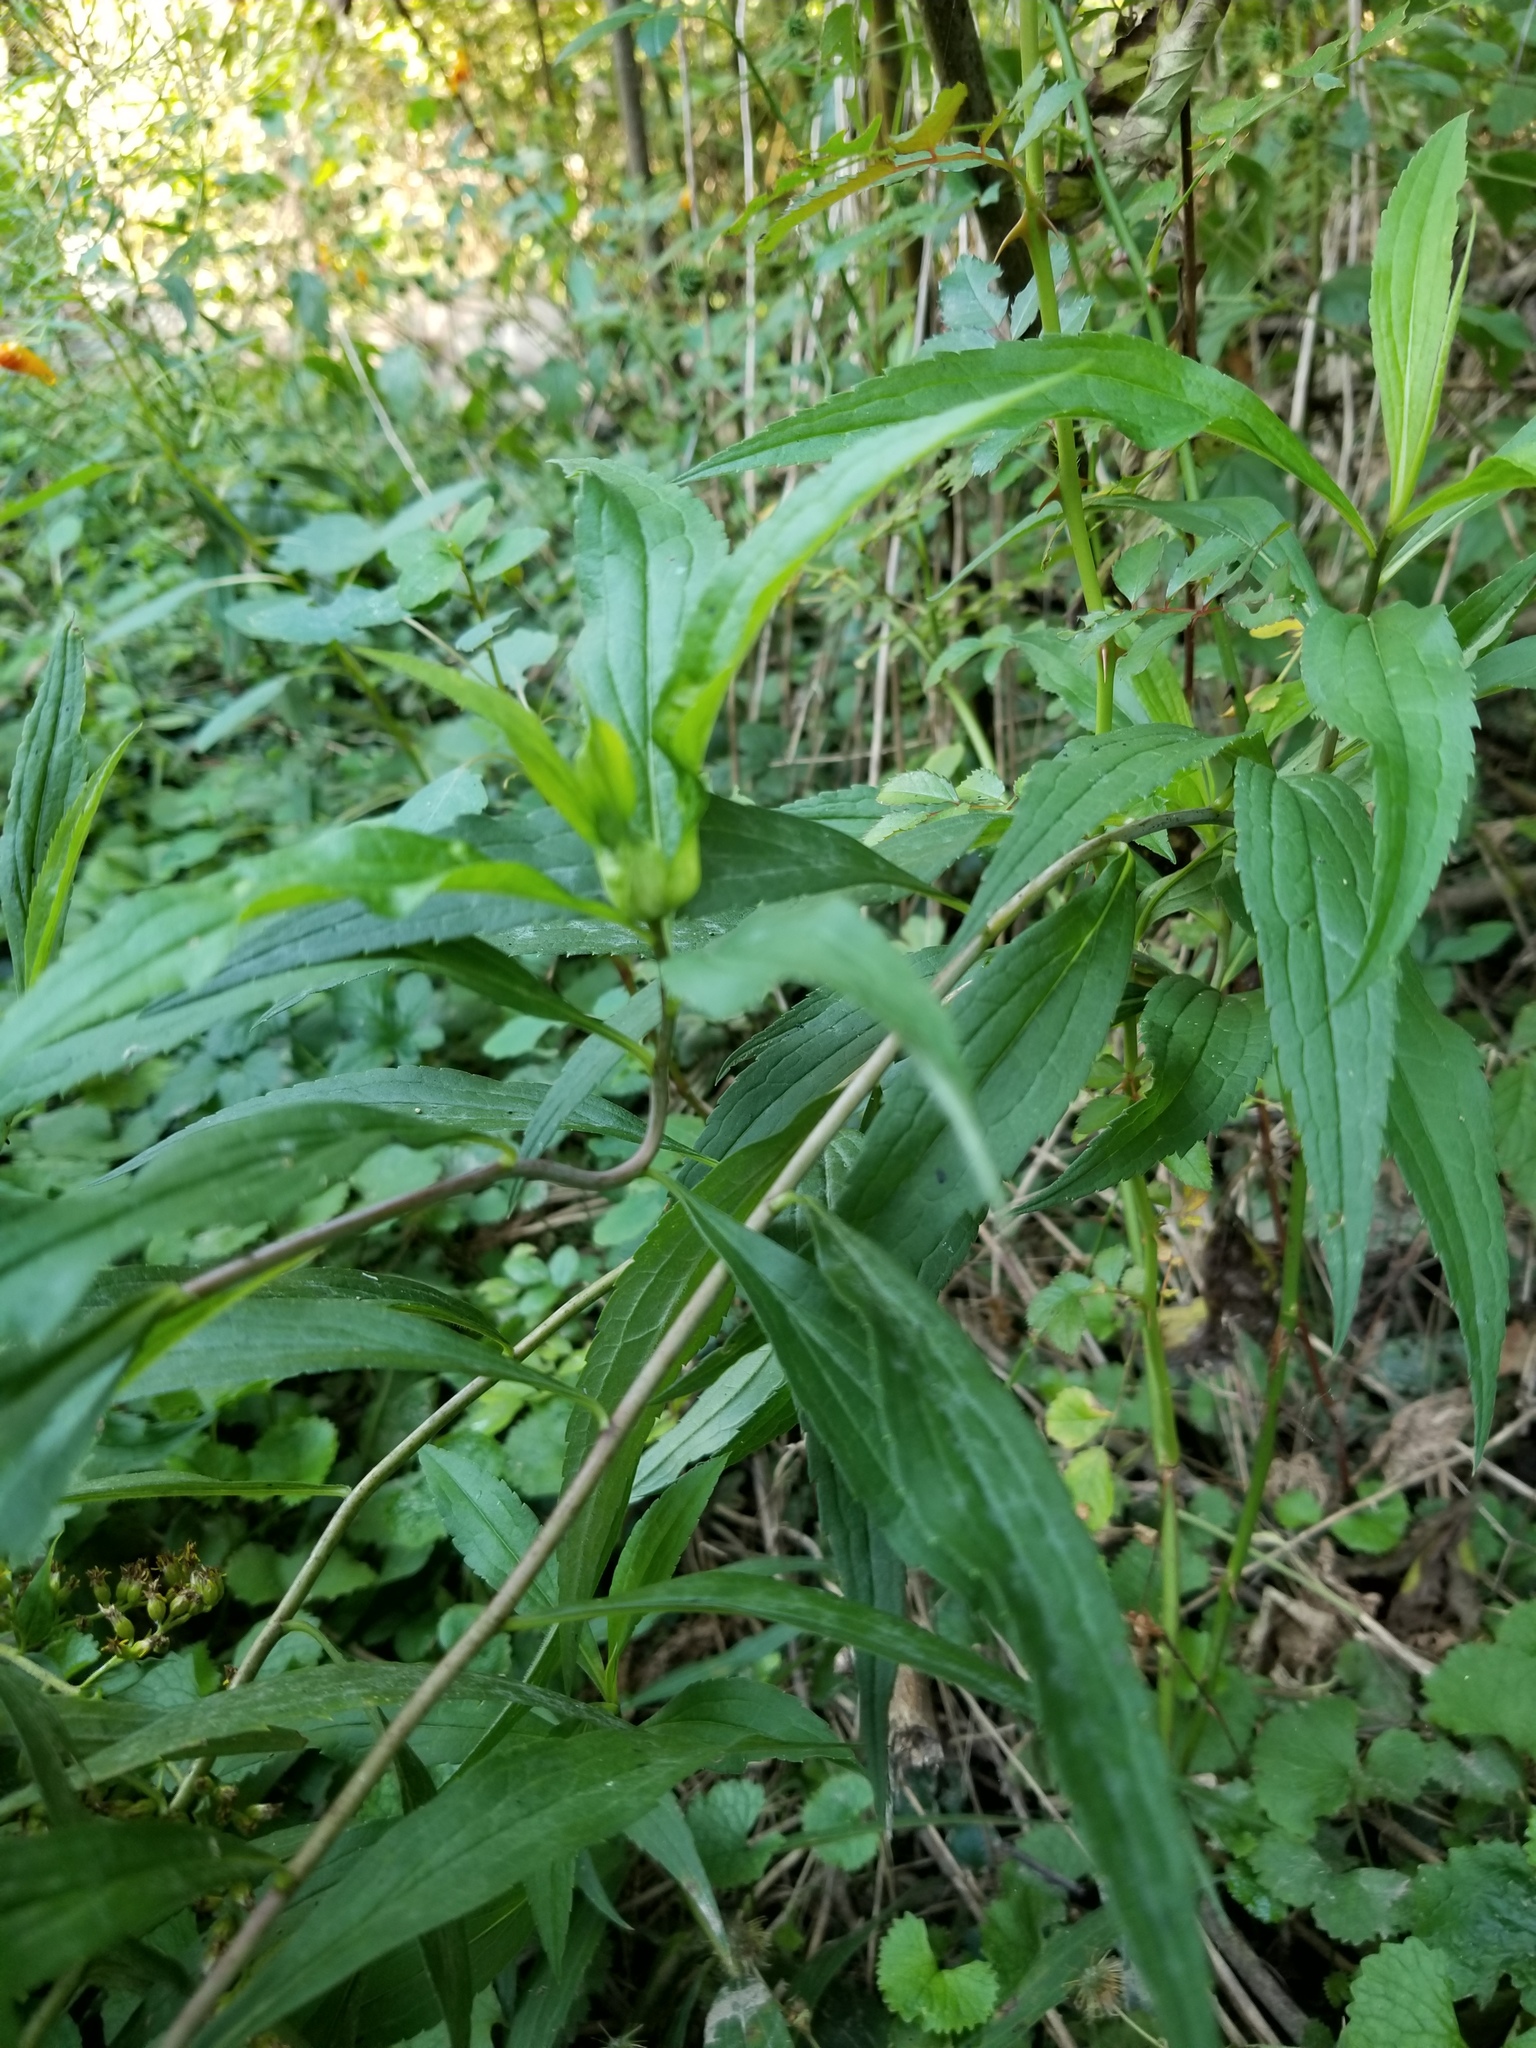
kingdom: Animalia
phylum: Arthropoda
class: Insecta
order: Diptera
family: Cecidomyiidae
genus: Dasineura
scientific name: Dasineura folliculi
